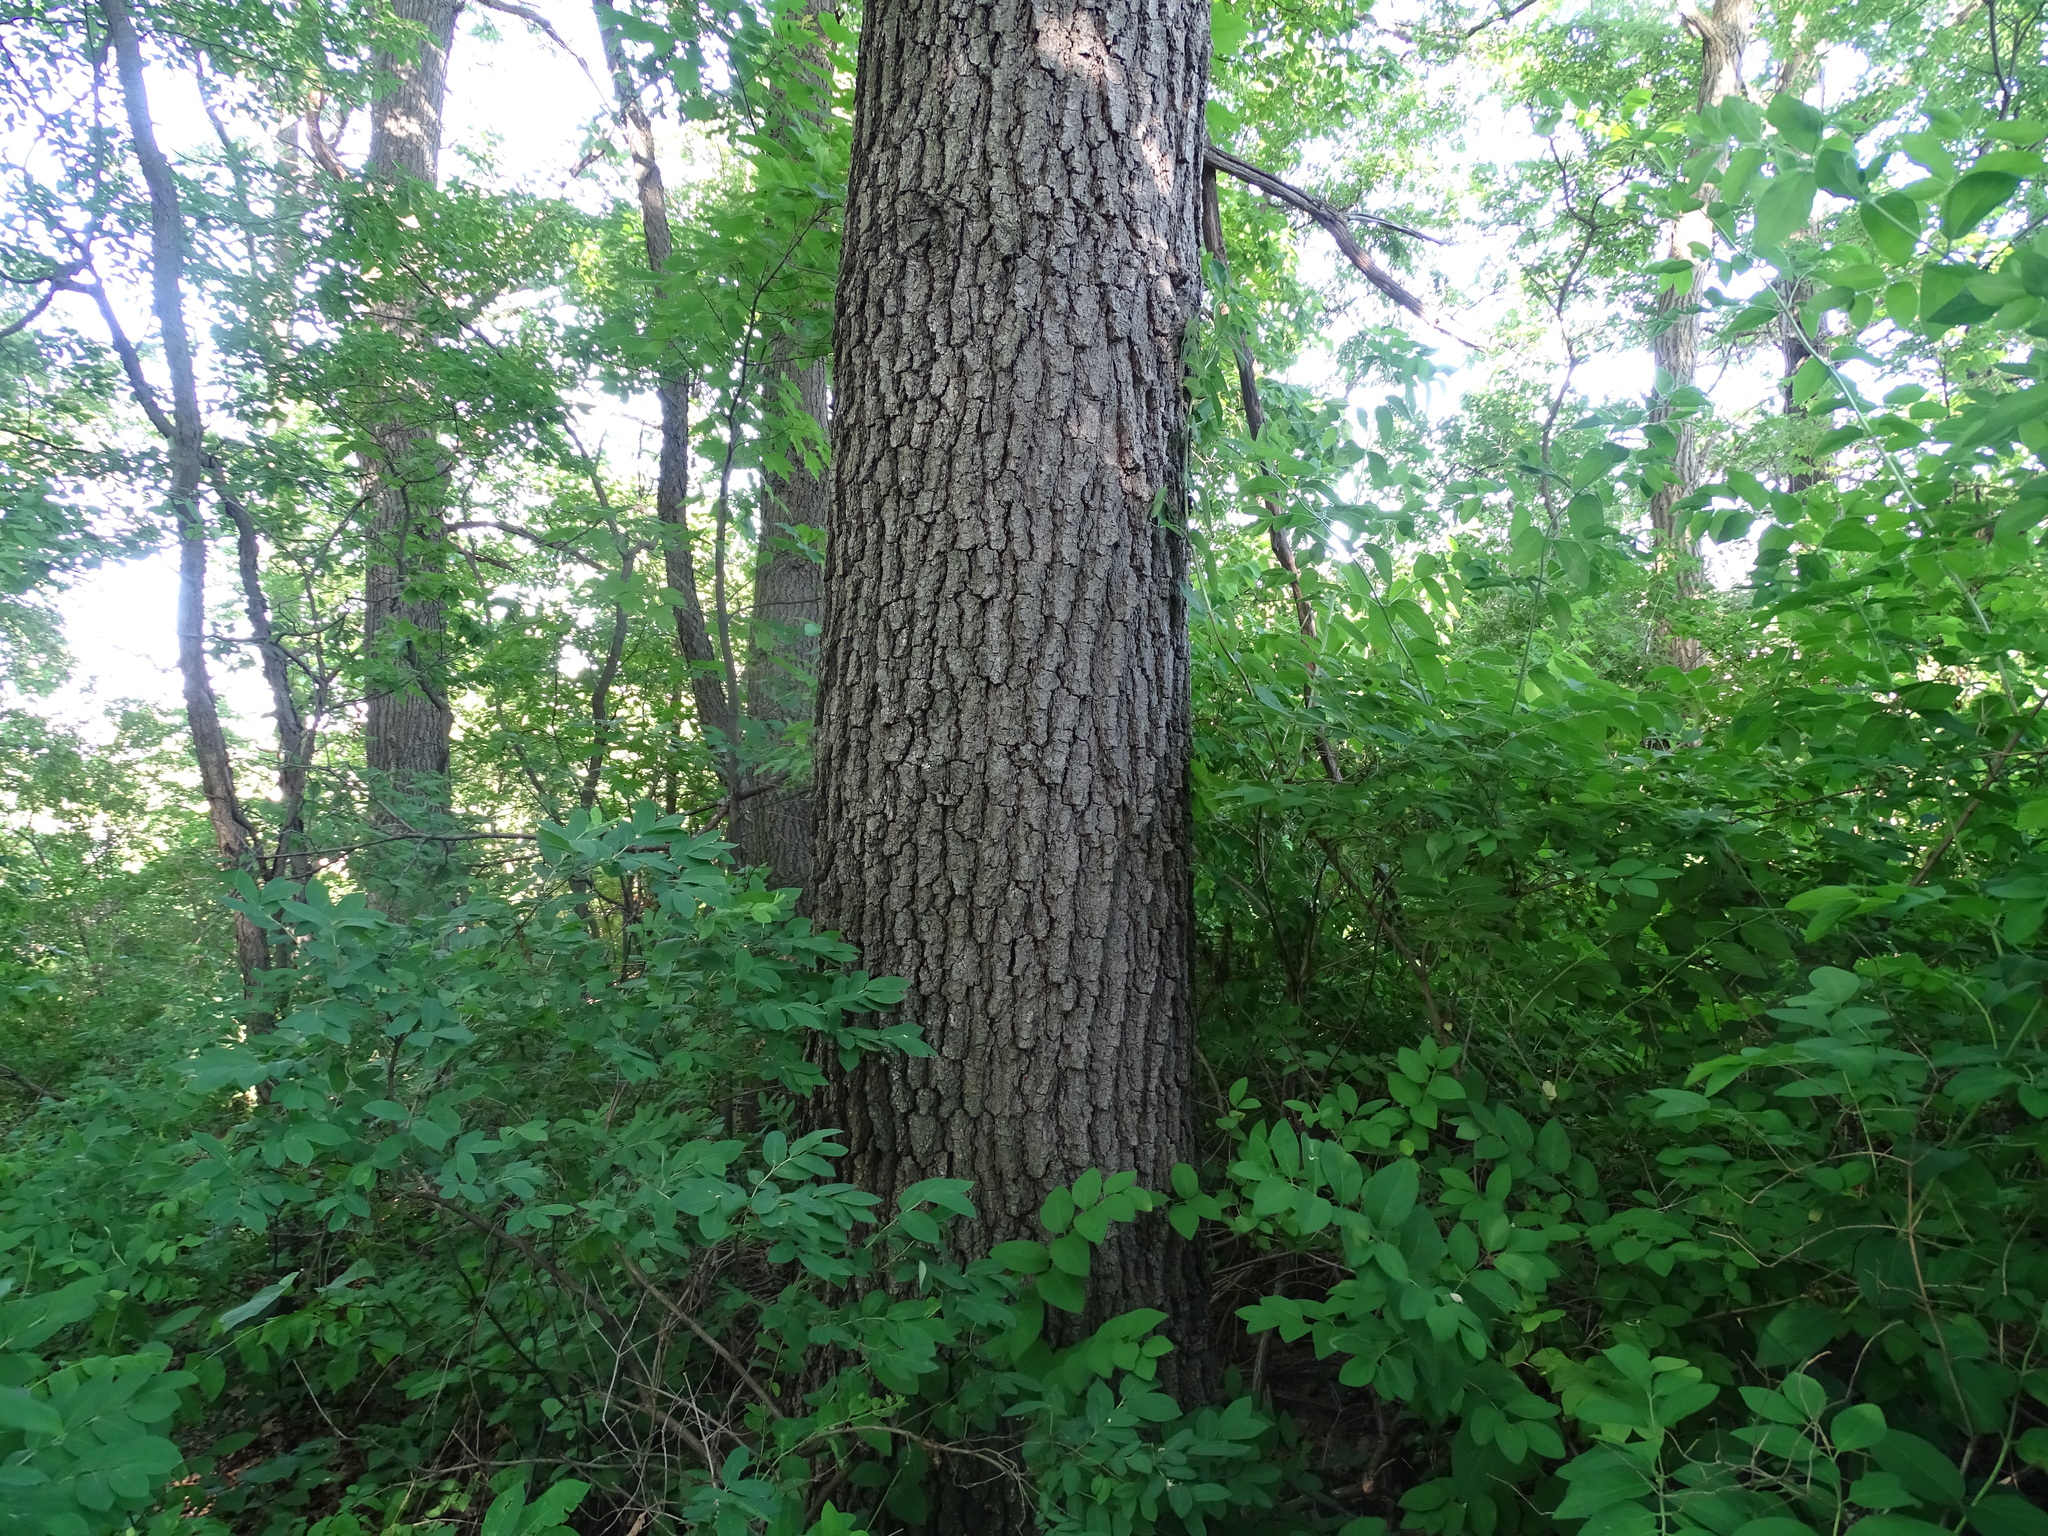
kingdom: Plantae
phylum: Tracheophyta
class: Magnoliopsida
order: Fagales
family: Fagaceae
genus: Quercus
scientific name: Quercus velutina
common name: Black oak
